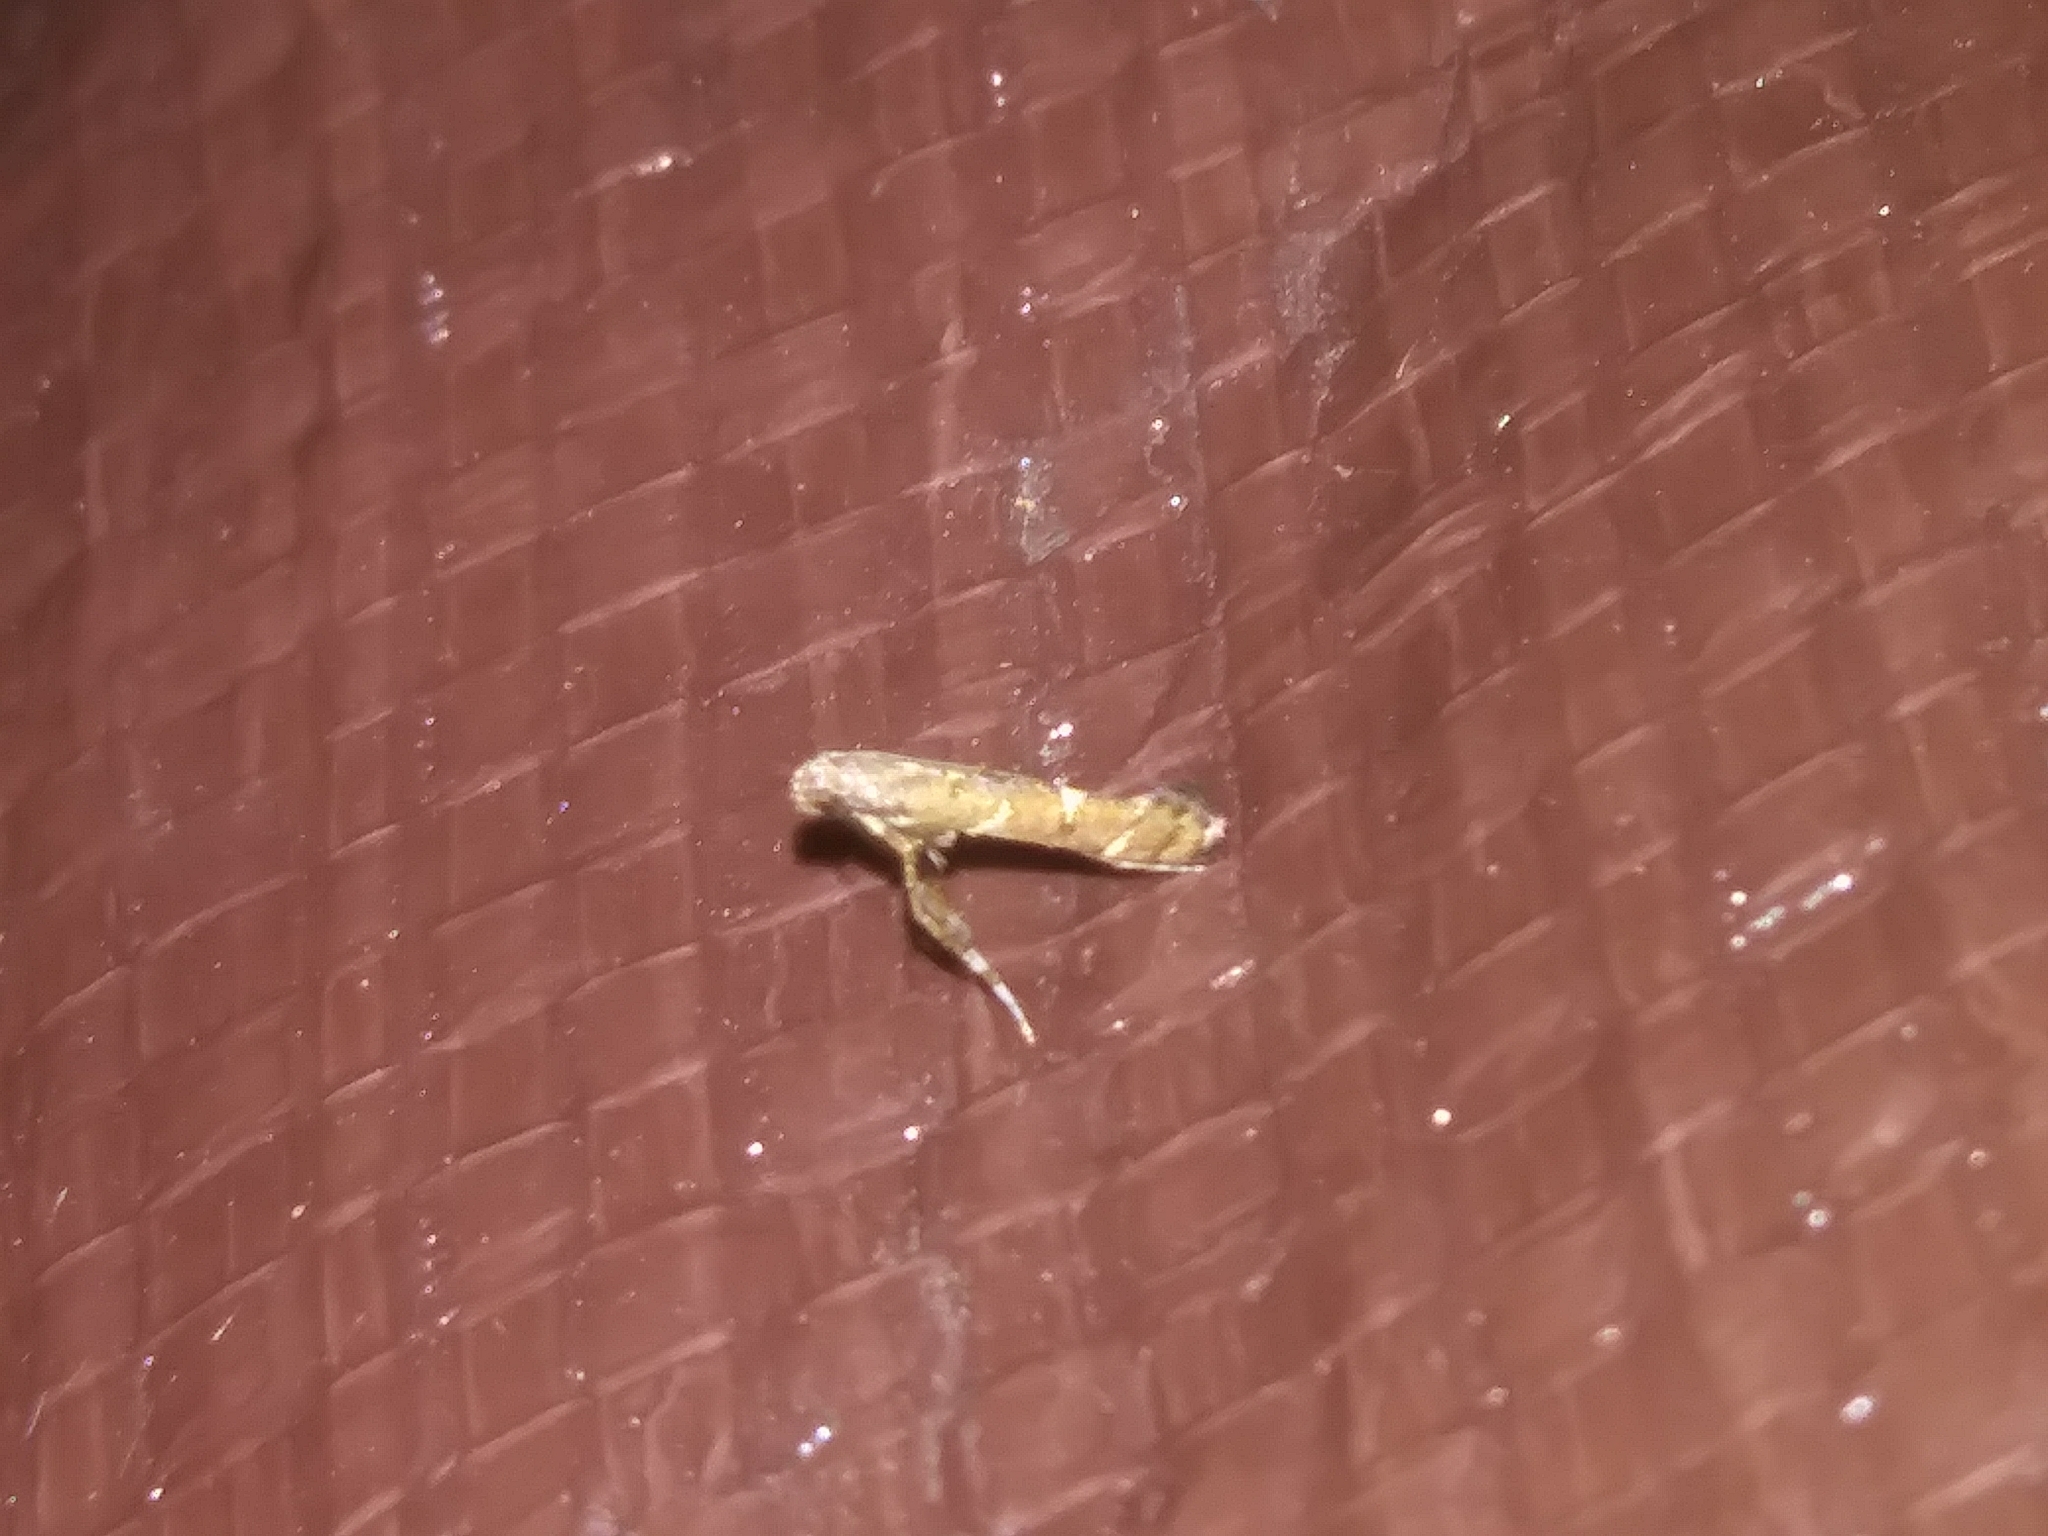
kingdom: Animalia
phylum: Arthropoda
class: Insecta
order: Lepidoptera
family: Gracillariidae
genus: Caloptilia
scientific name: Caloptilia triadicae
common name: Tallow leaf roller
